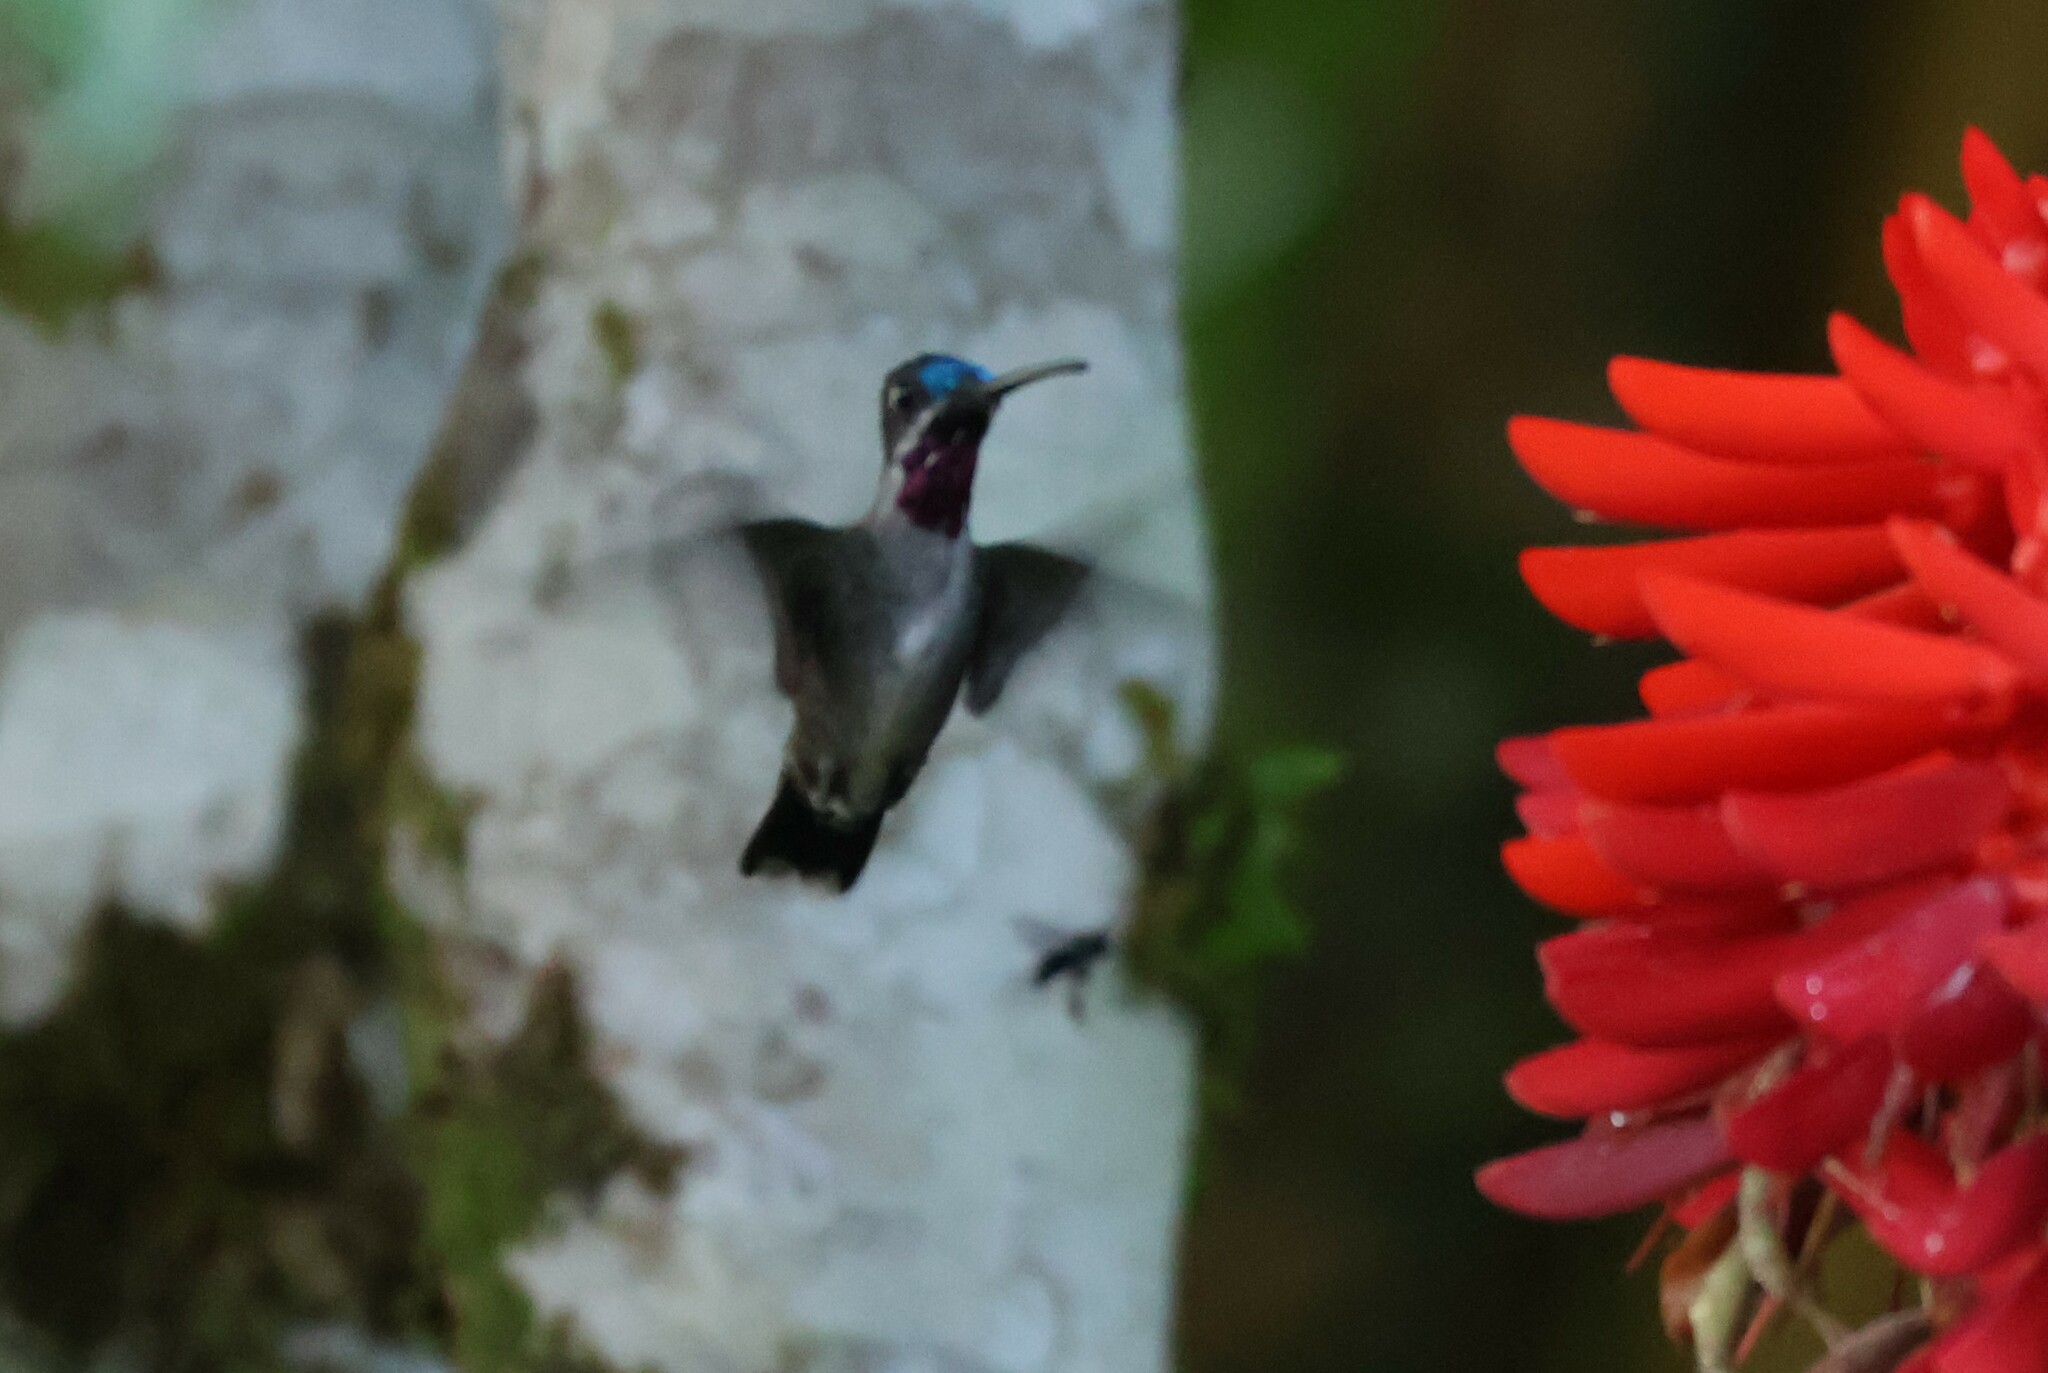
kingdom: Animalia
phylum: Chordata
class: Aves
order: Apodiformes
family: Trochilidae
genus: Heliomaster
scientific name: Heliomaster longirostris
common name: Long-billed starthroat
